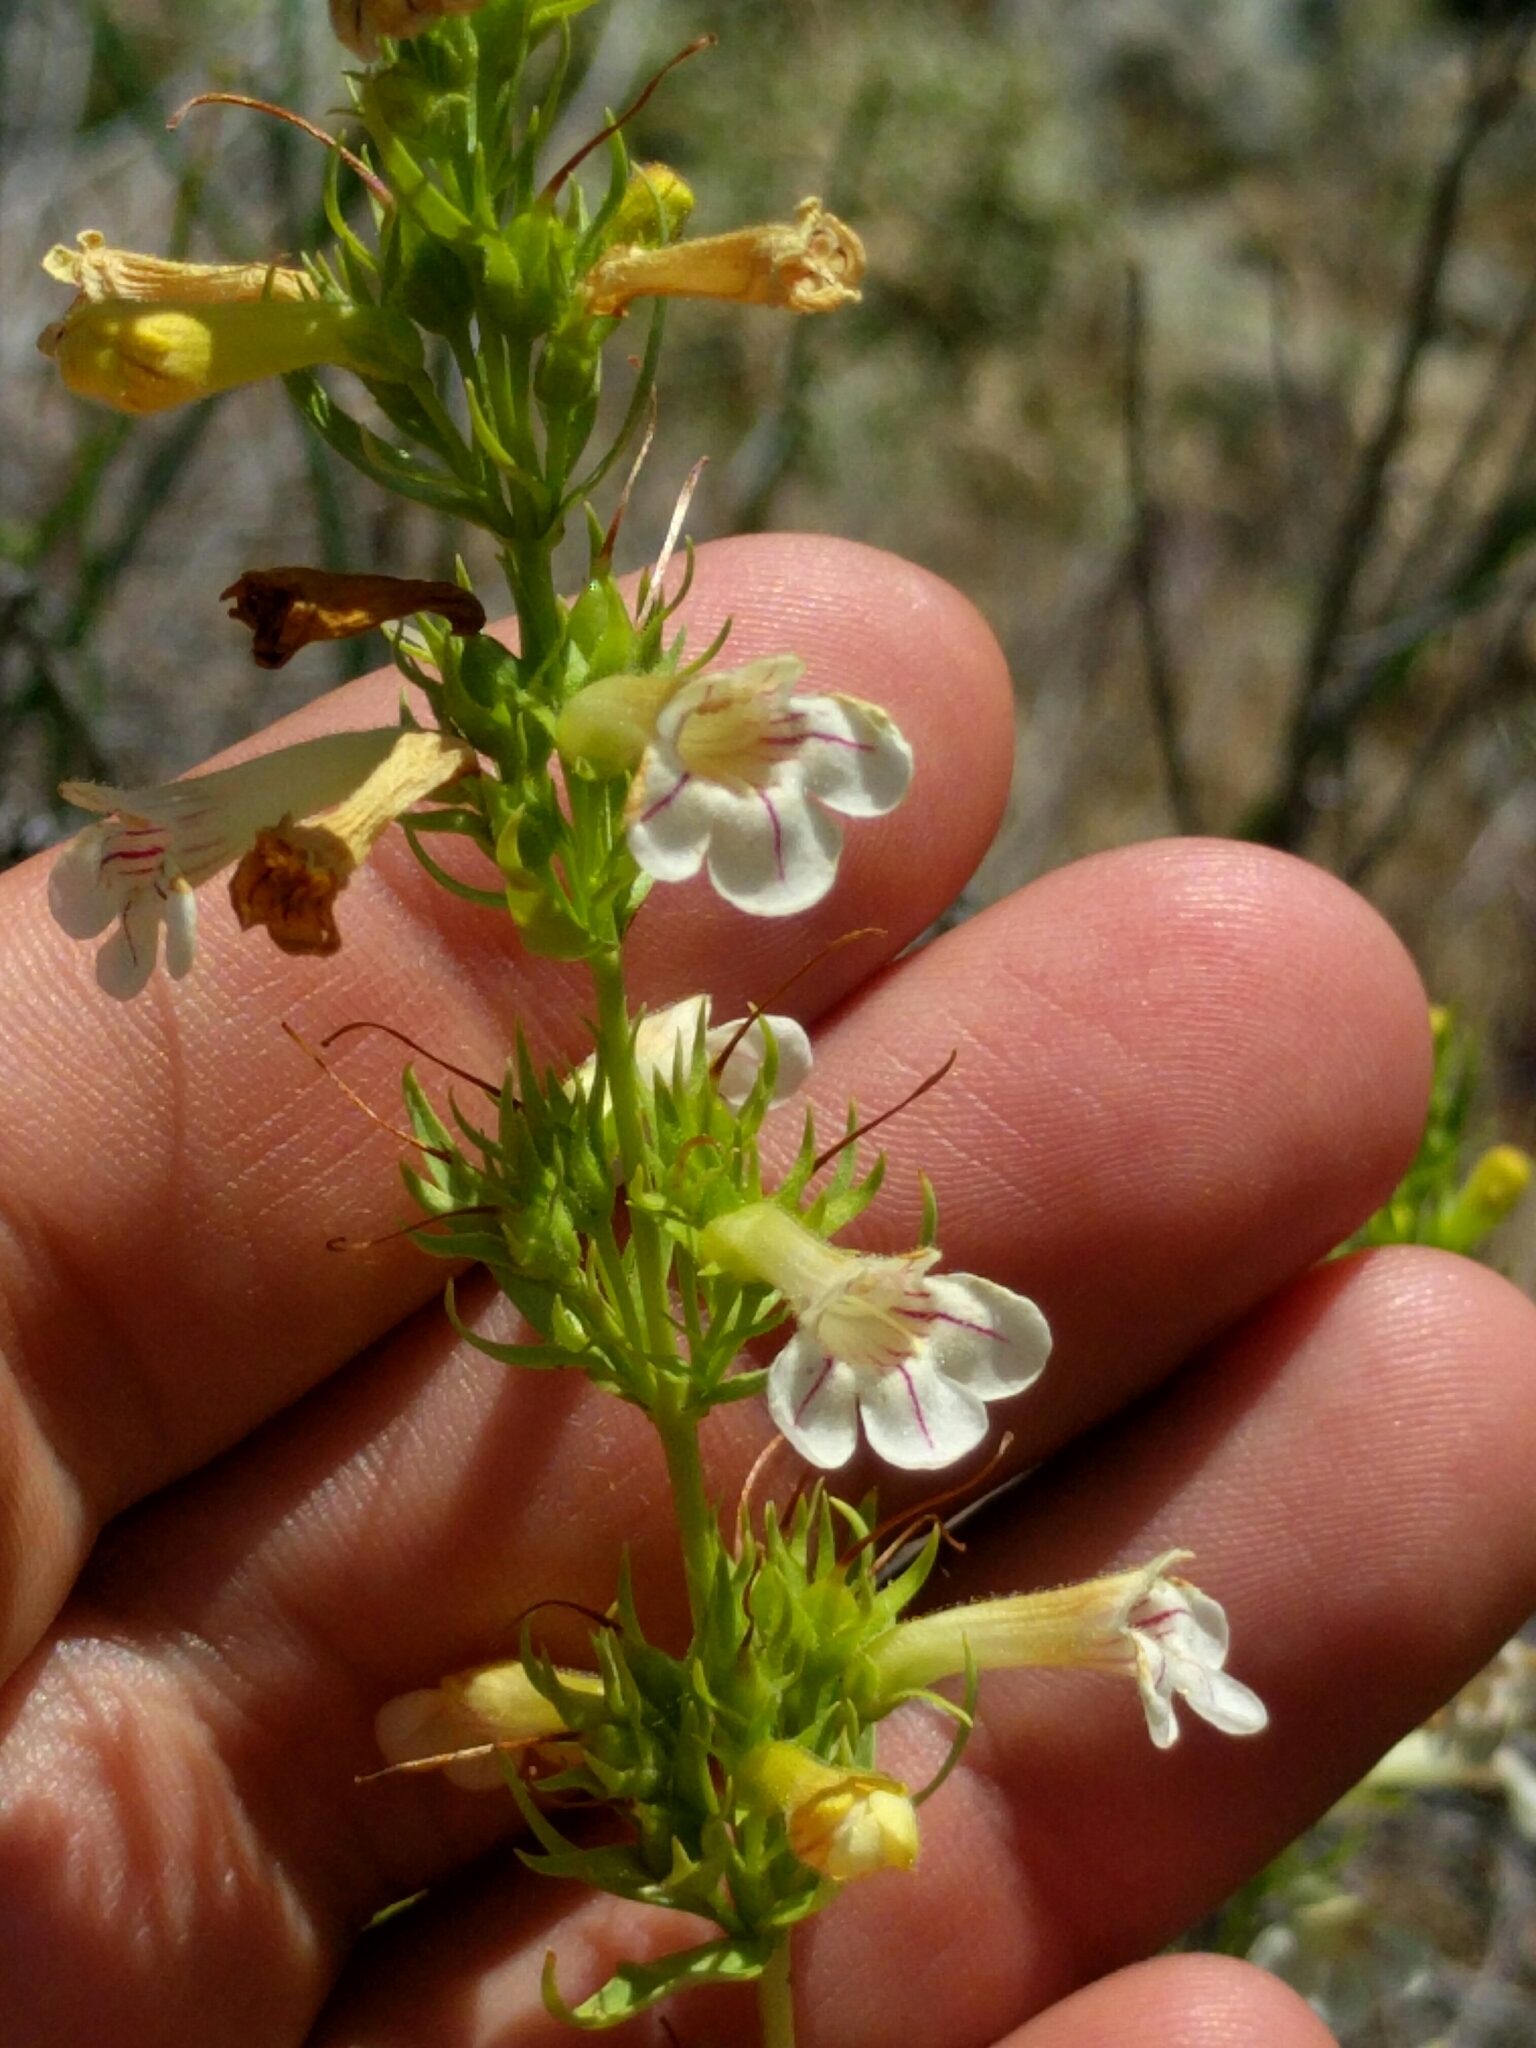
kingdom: Plantae
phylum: Tracheophyta
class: Magnoliopsida
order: Lamiales
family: Plantaginaceae
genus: Penstemon
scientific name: Penstemon deustus
